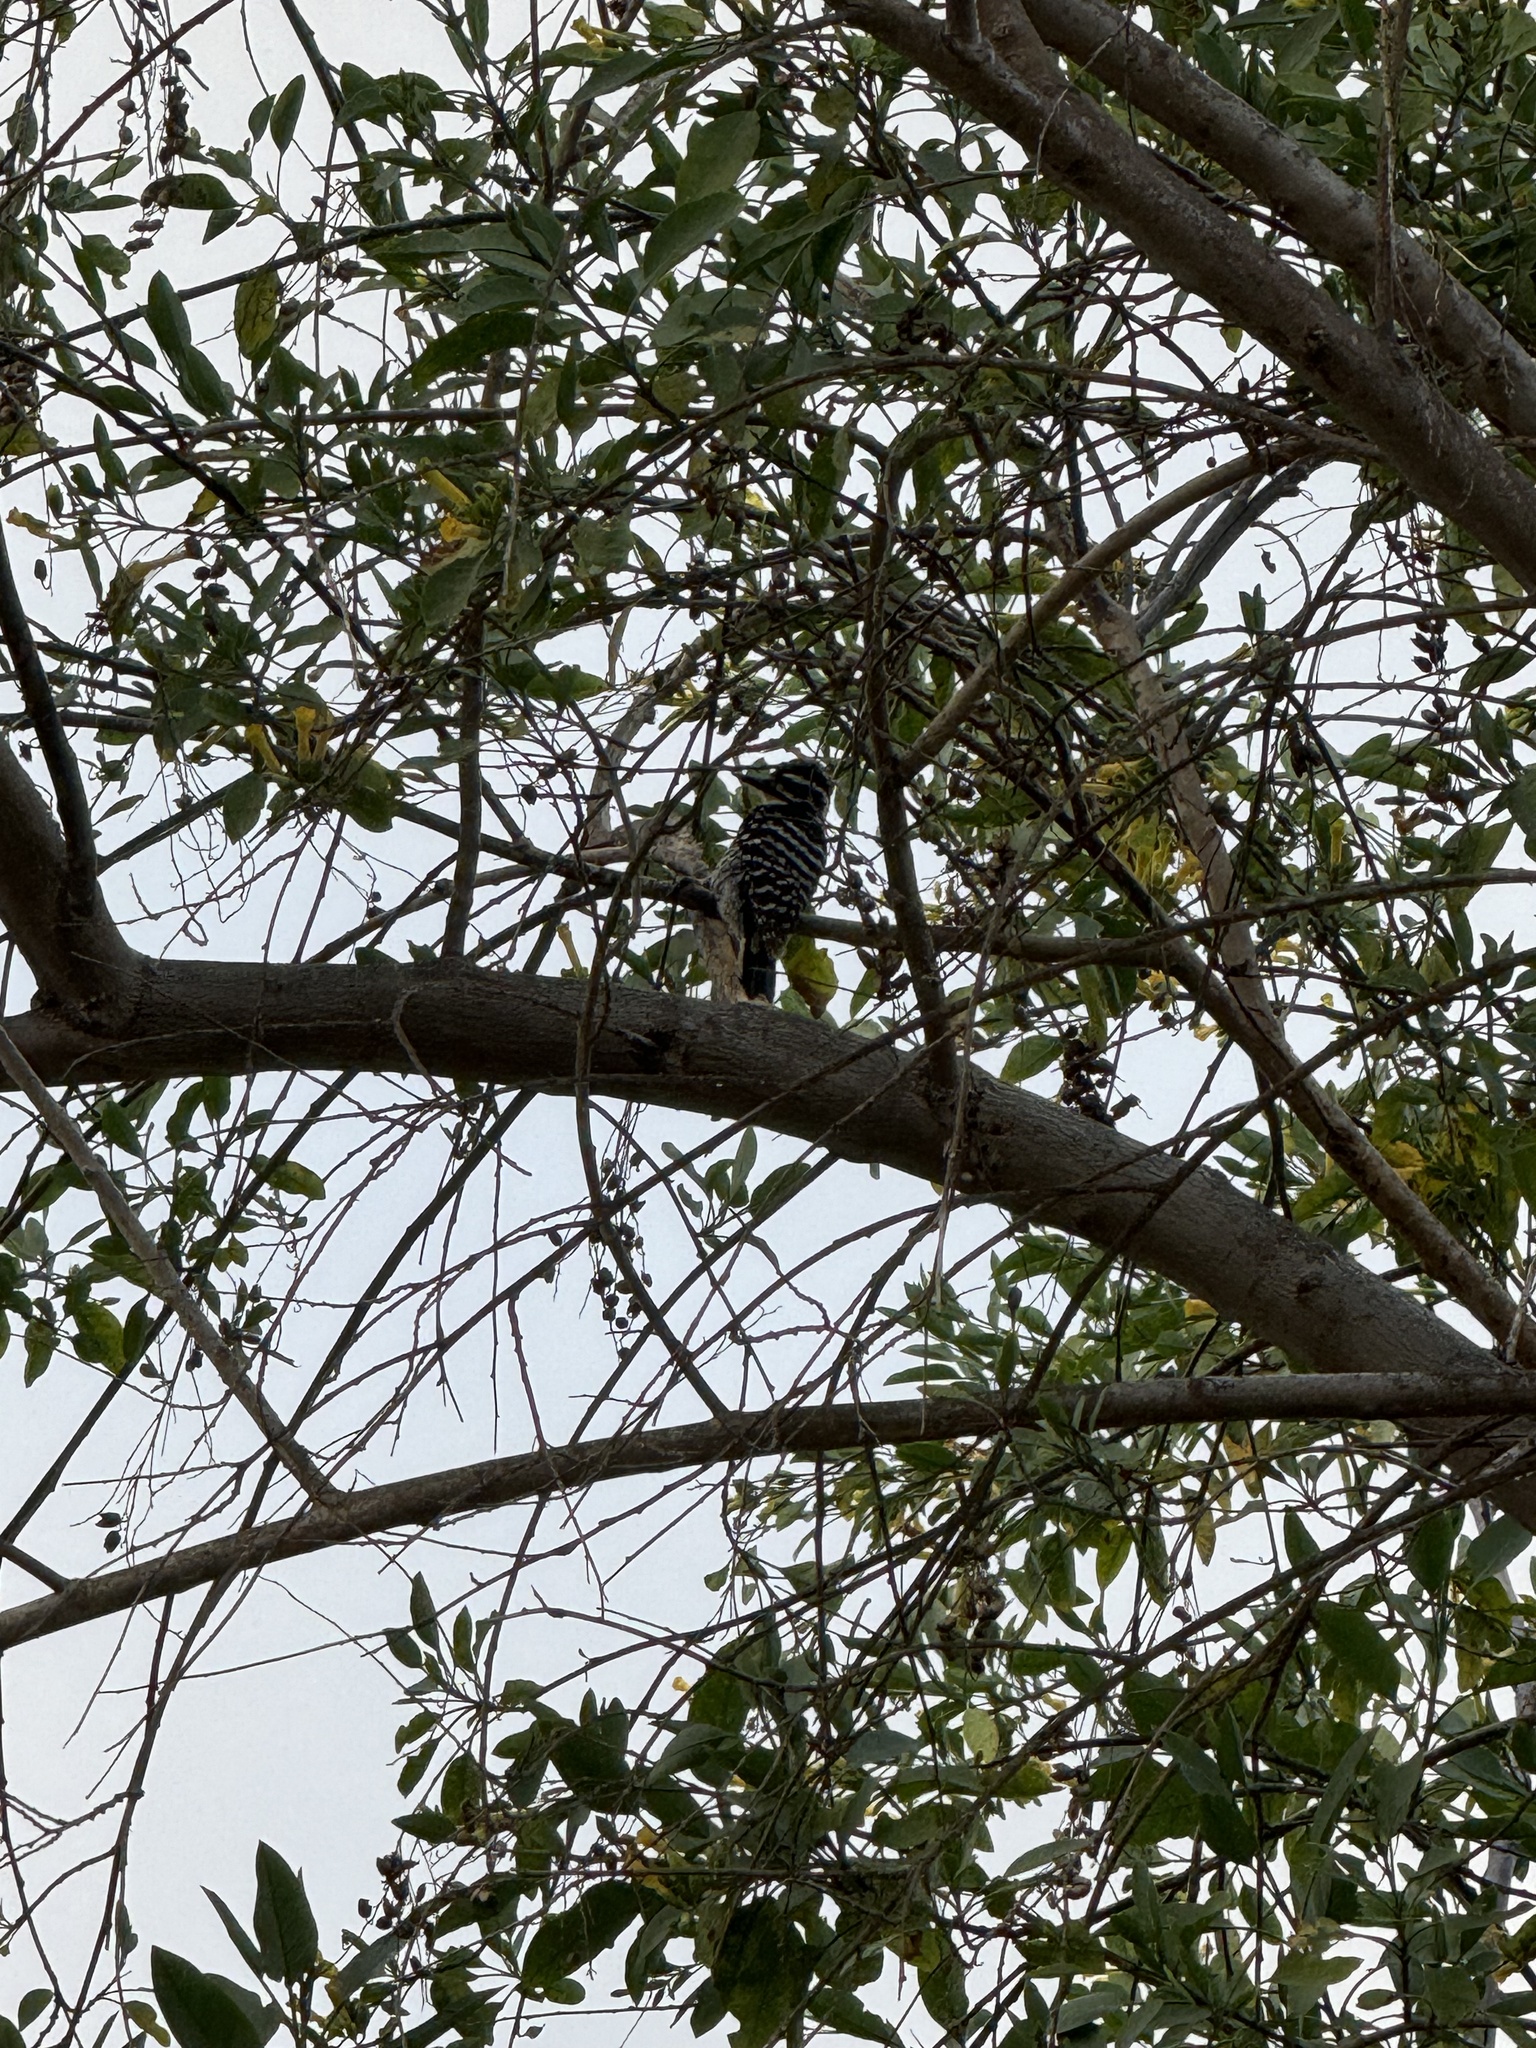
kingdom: Animalia
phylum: Chordata
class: Aves
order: Piciformes
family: Picidae
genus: Dryobates
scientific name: Dryobates nuttallii
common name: Nuttall's woodpecker
